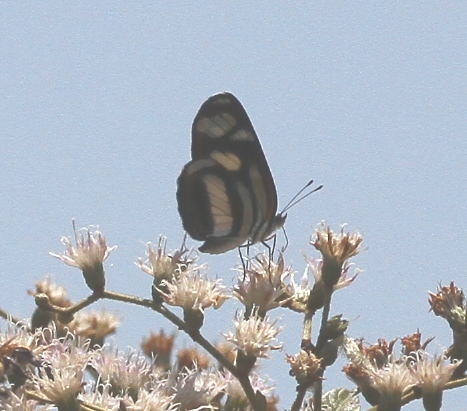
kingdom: Animalia
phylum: Arthropoda
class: Insecta
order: Lepidoptera
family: Nymphalidae
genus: Eresia
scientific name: Eresia clio
